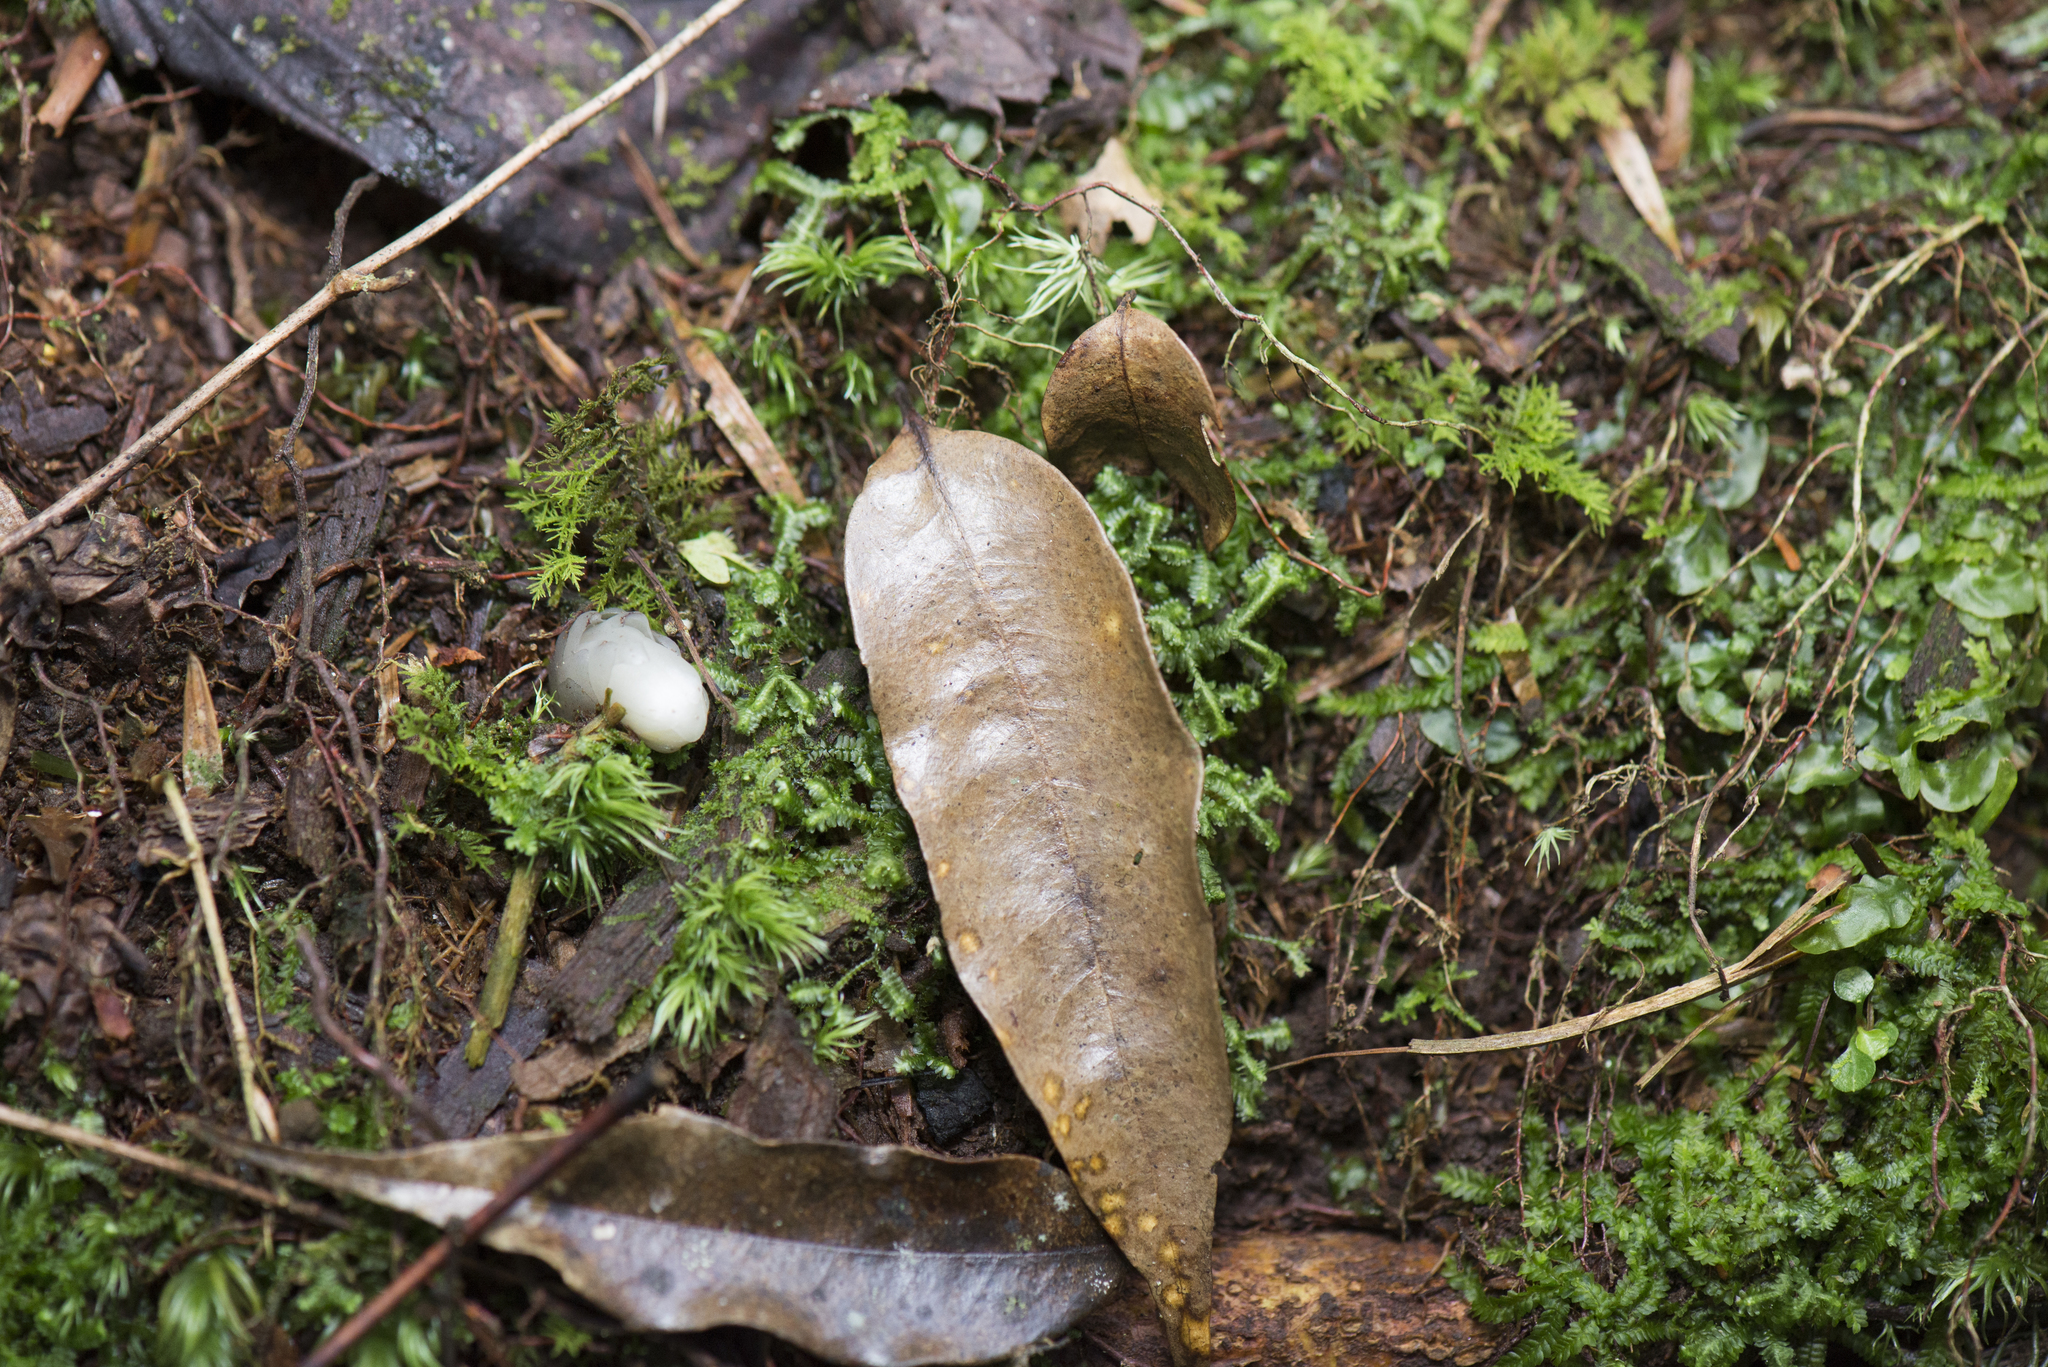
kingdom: Plantae
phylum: Tracheophyta
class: Magnoliopsida
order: Ericales
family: Ericaceae
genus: Monotropastrum
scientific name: Monotropastrum humile
